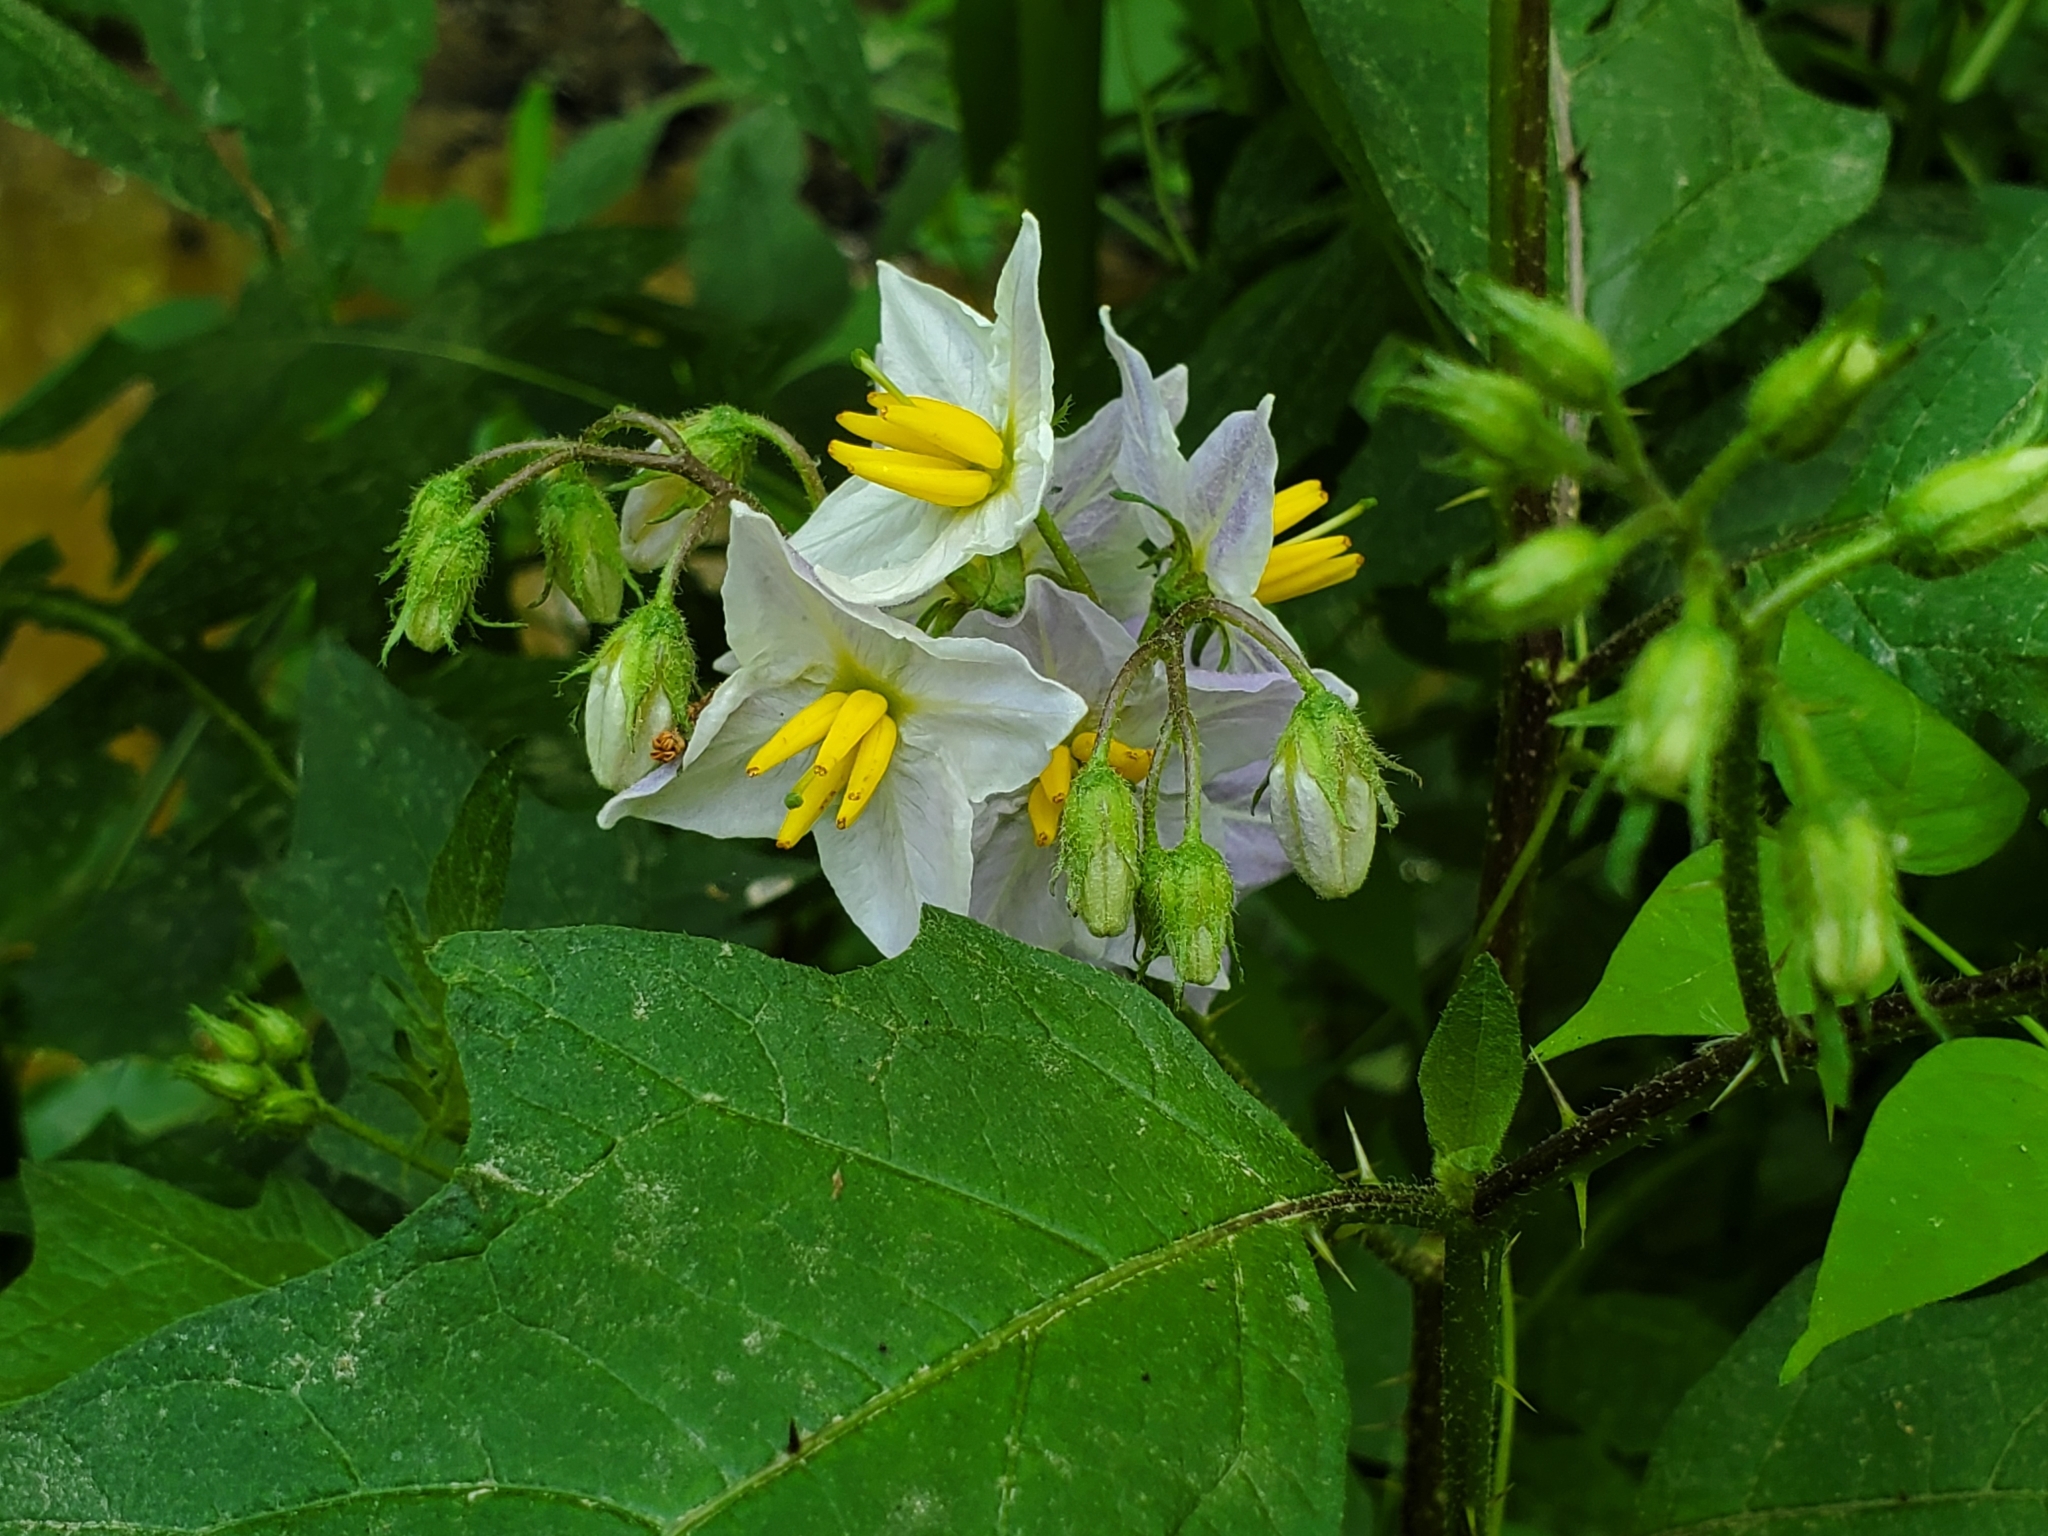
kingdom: Plantae
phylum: Tracheophyta
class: Magnoliopsida
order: Solanales
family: Solanaceae
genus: Solanum
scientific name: Solanum carolinense
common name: Horse-nettle
